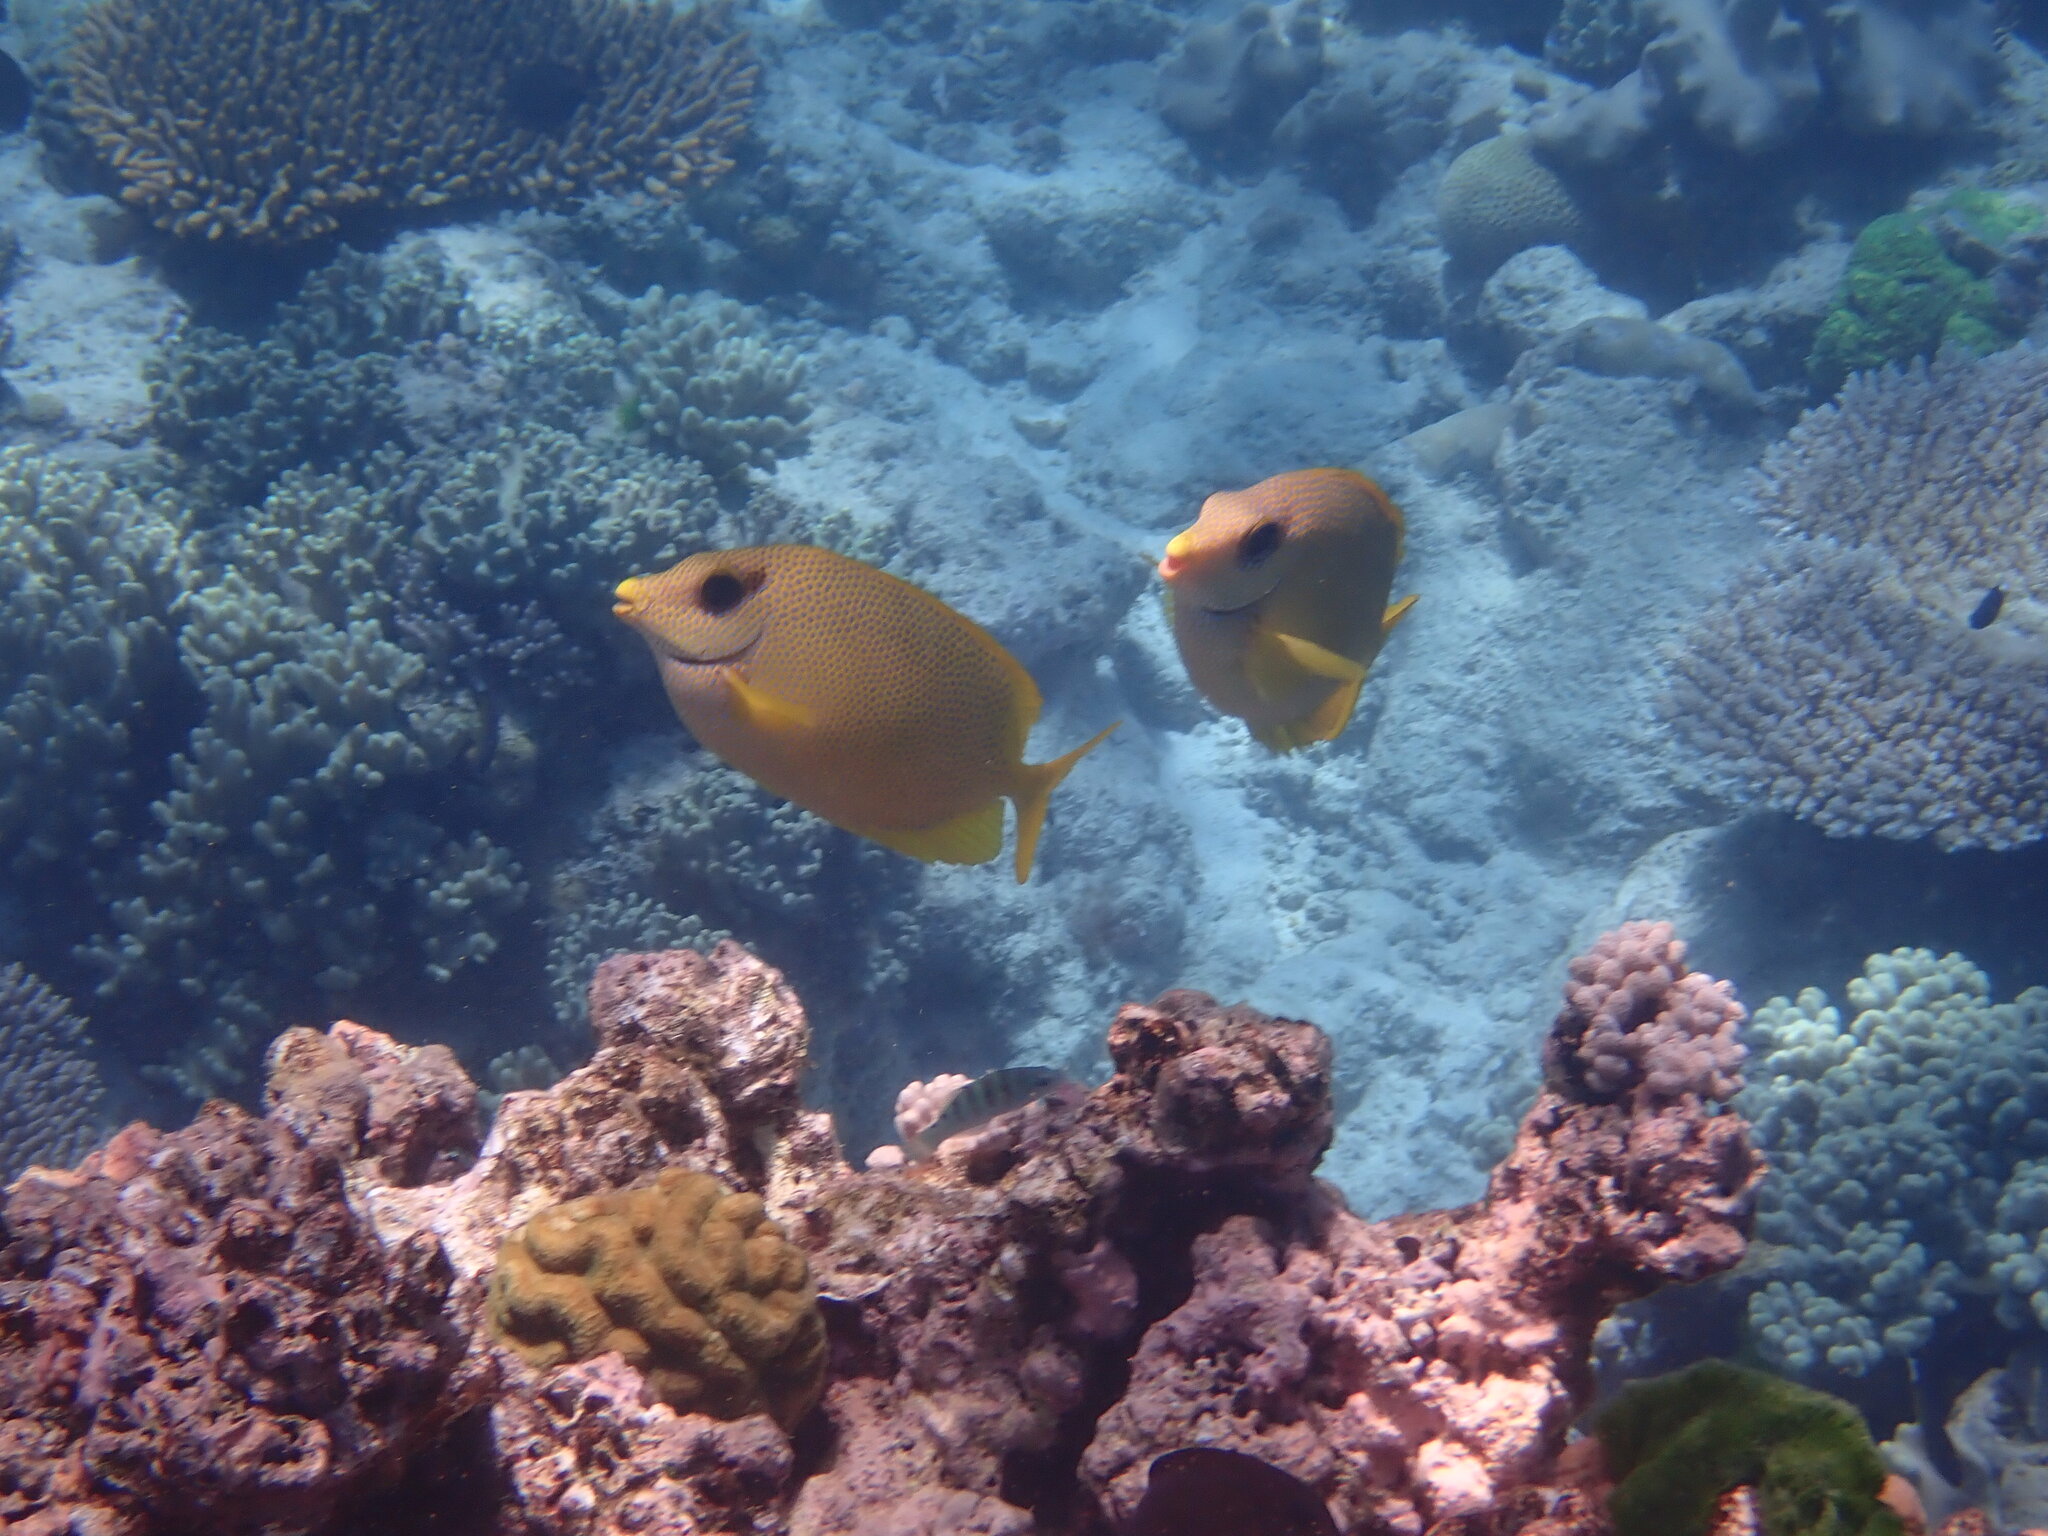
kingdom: Animalia
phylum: Chordata
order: Perciformes
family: Siganidae
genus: Siganus
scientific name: Siganus corallinus
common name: Coral rabbitfish
